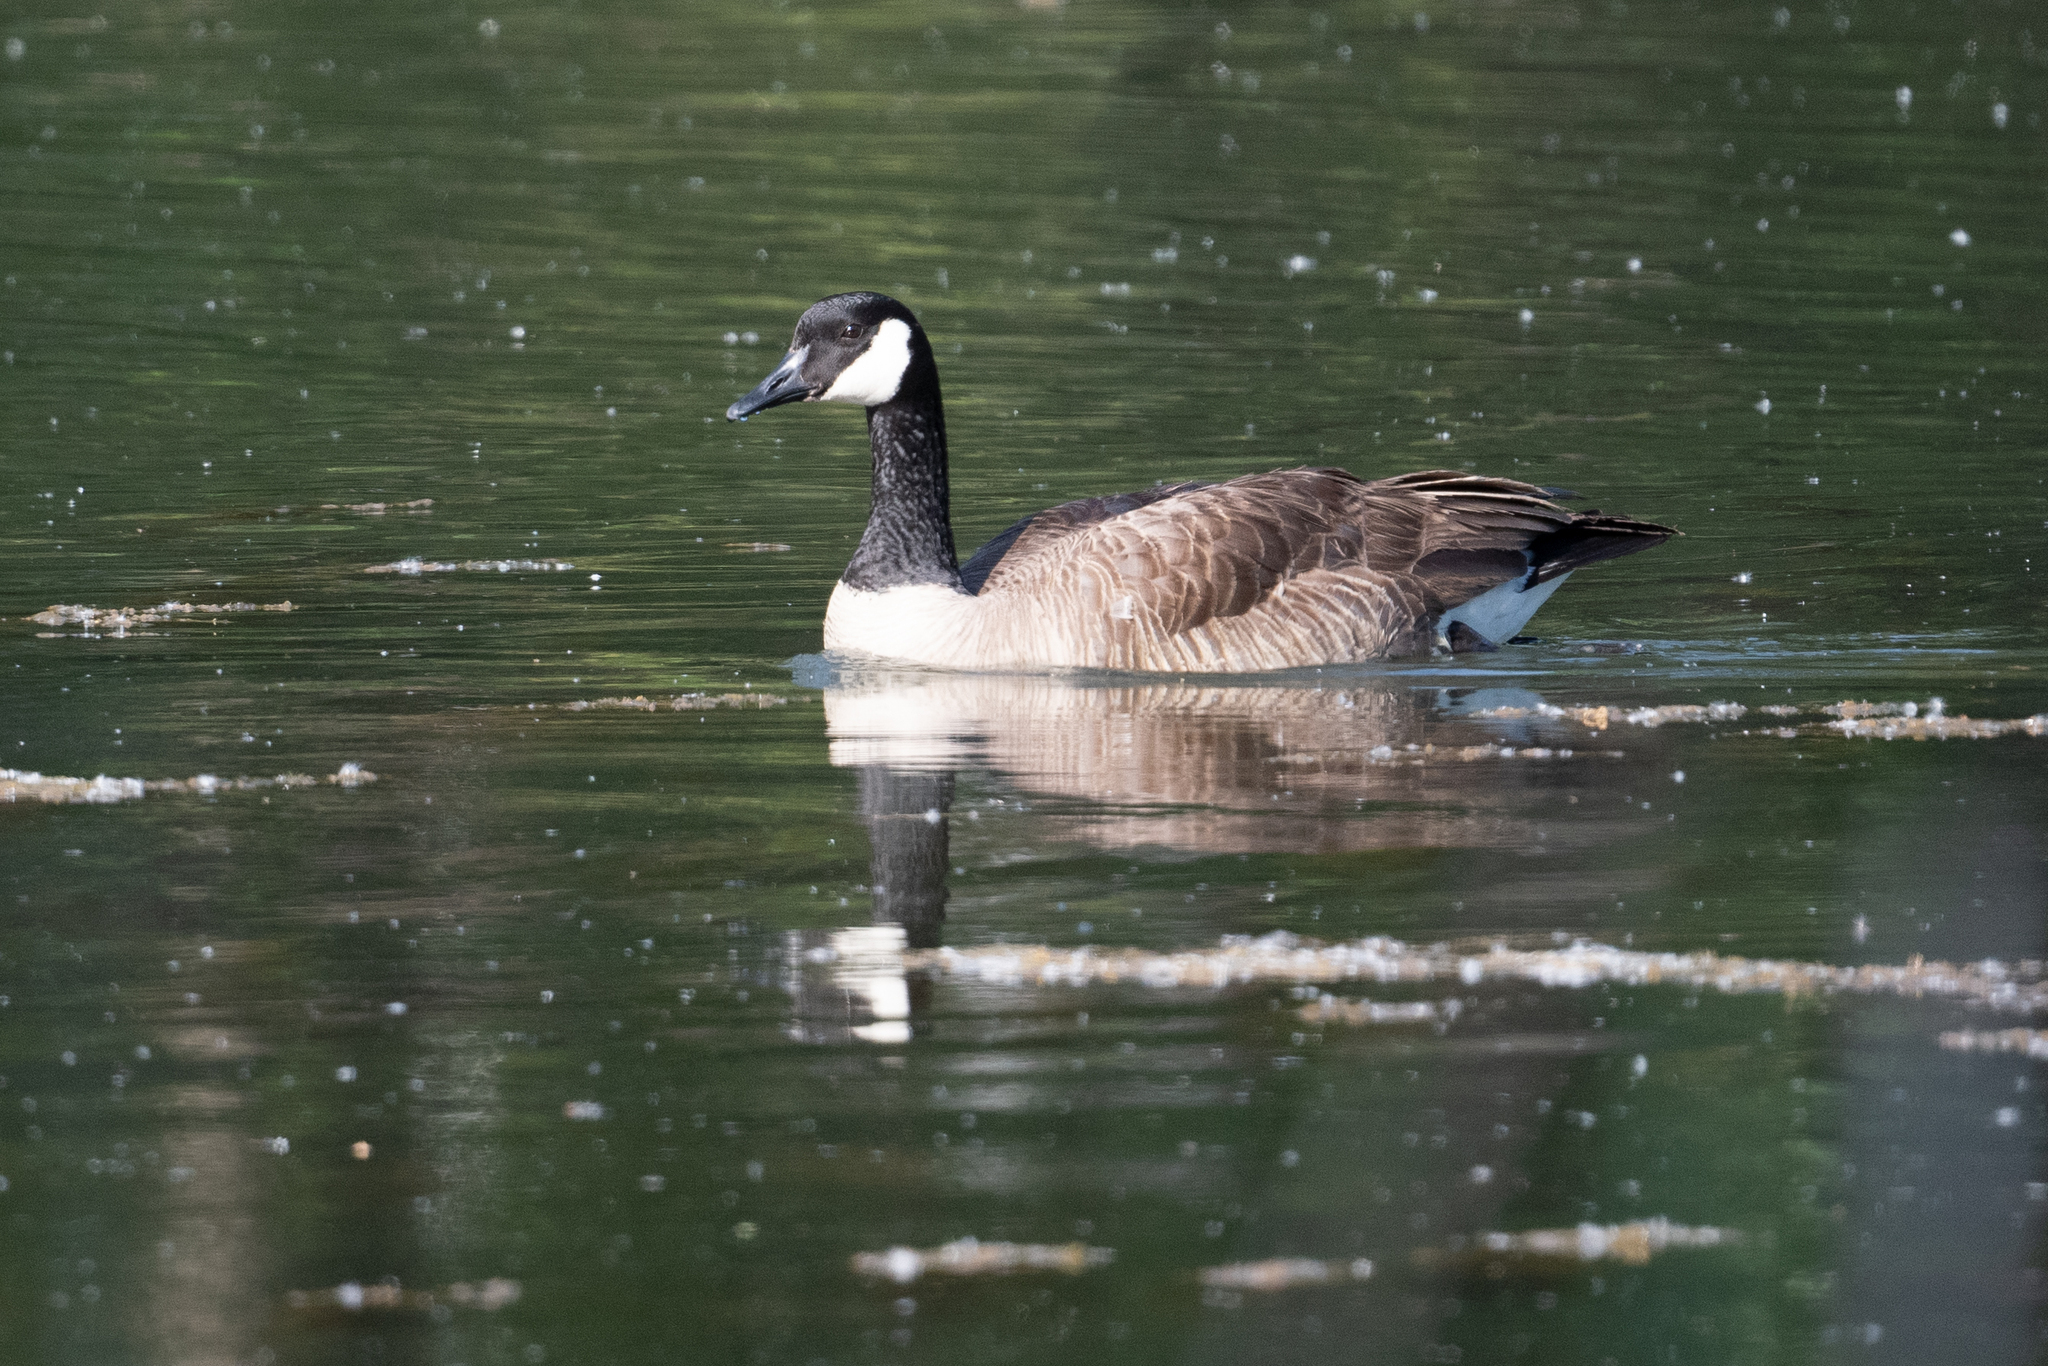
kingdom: Animalia
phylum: Chordata
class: Aves
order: Anseriformes
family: Anatidae
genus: Branta
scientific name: Branta canadensis
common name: Canada goose
